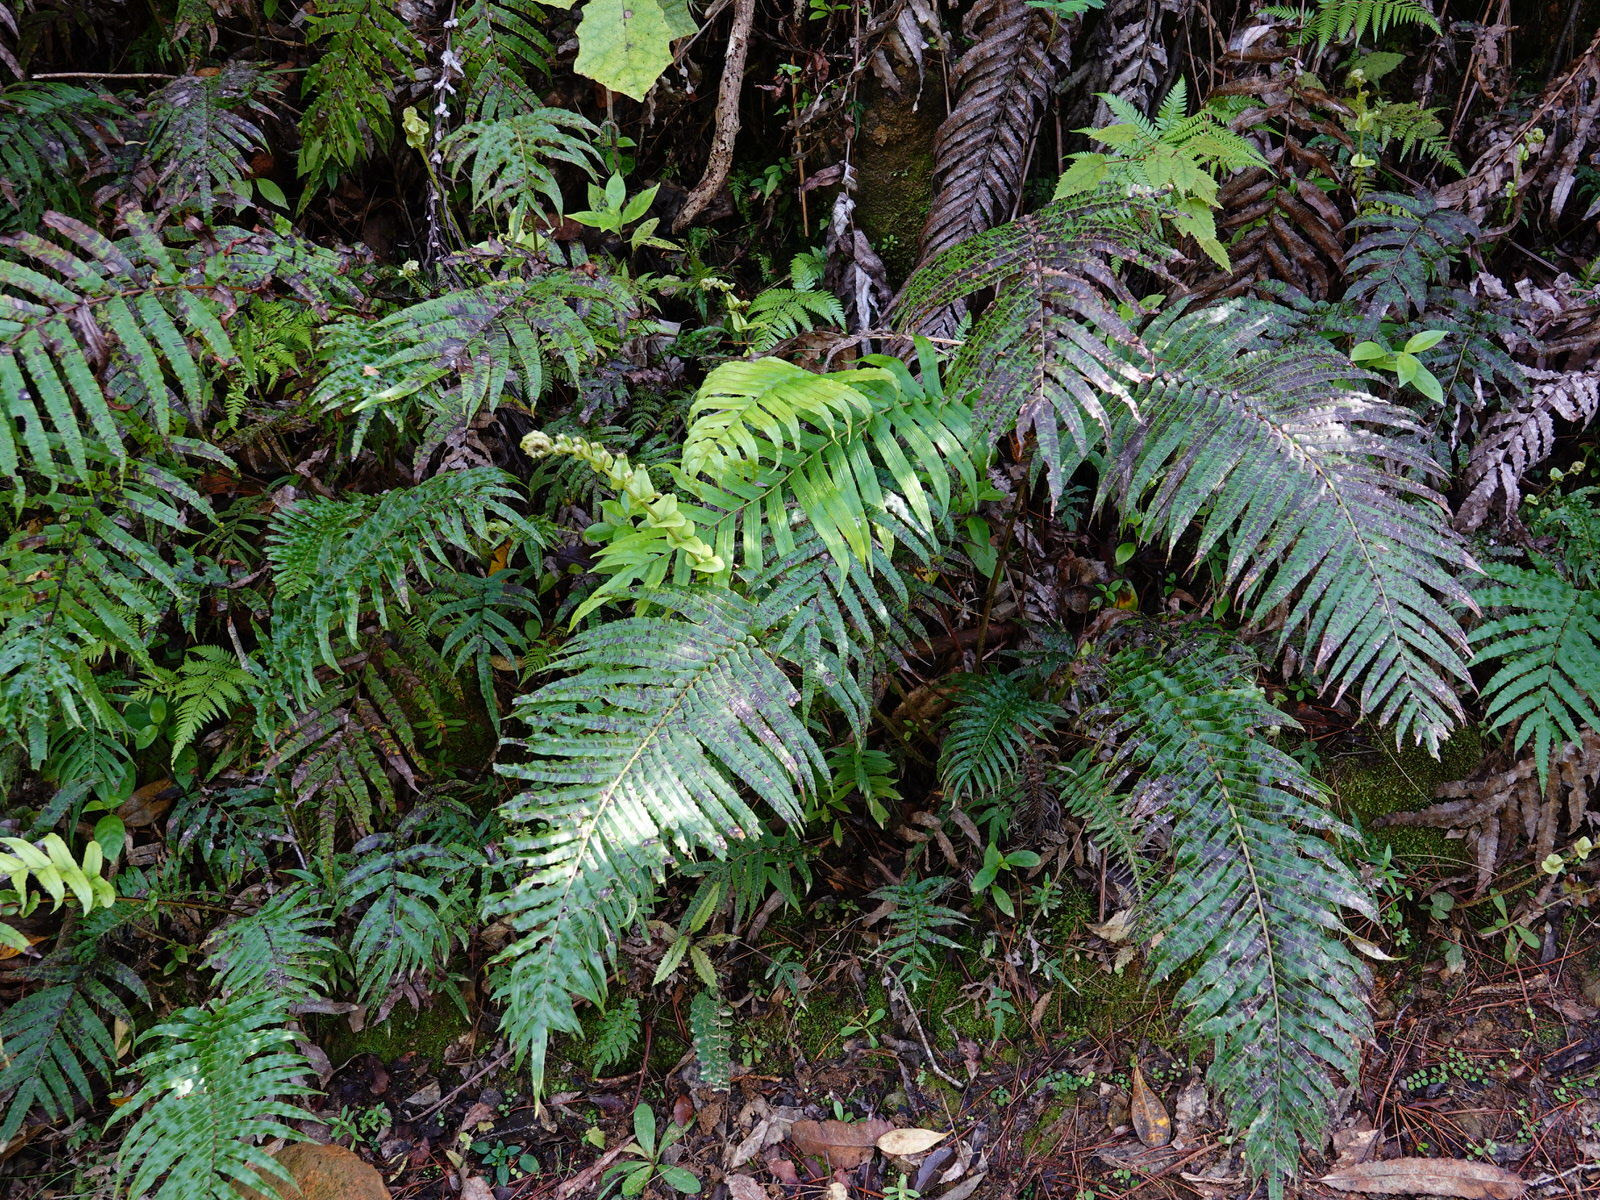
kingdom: Plantae
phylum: Tracheophyta
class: Polypodiopsida
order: Polypodiales
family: Blechnaceae
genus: Parablechnum
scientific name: Parablechnum novae-zelandiae
